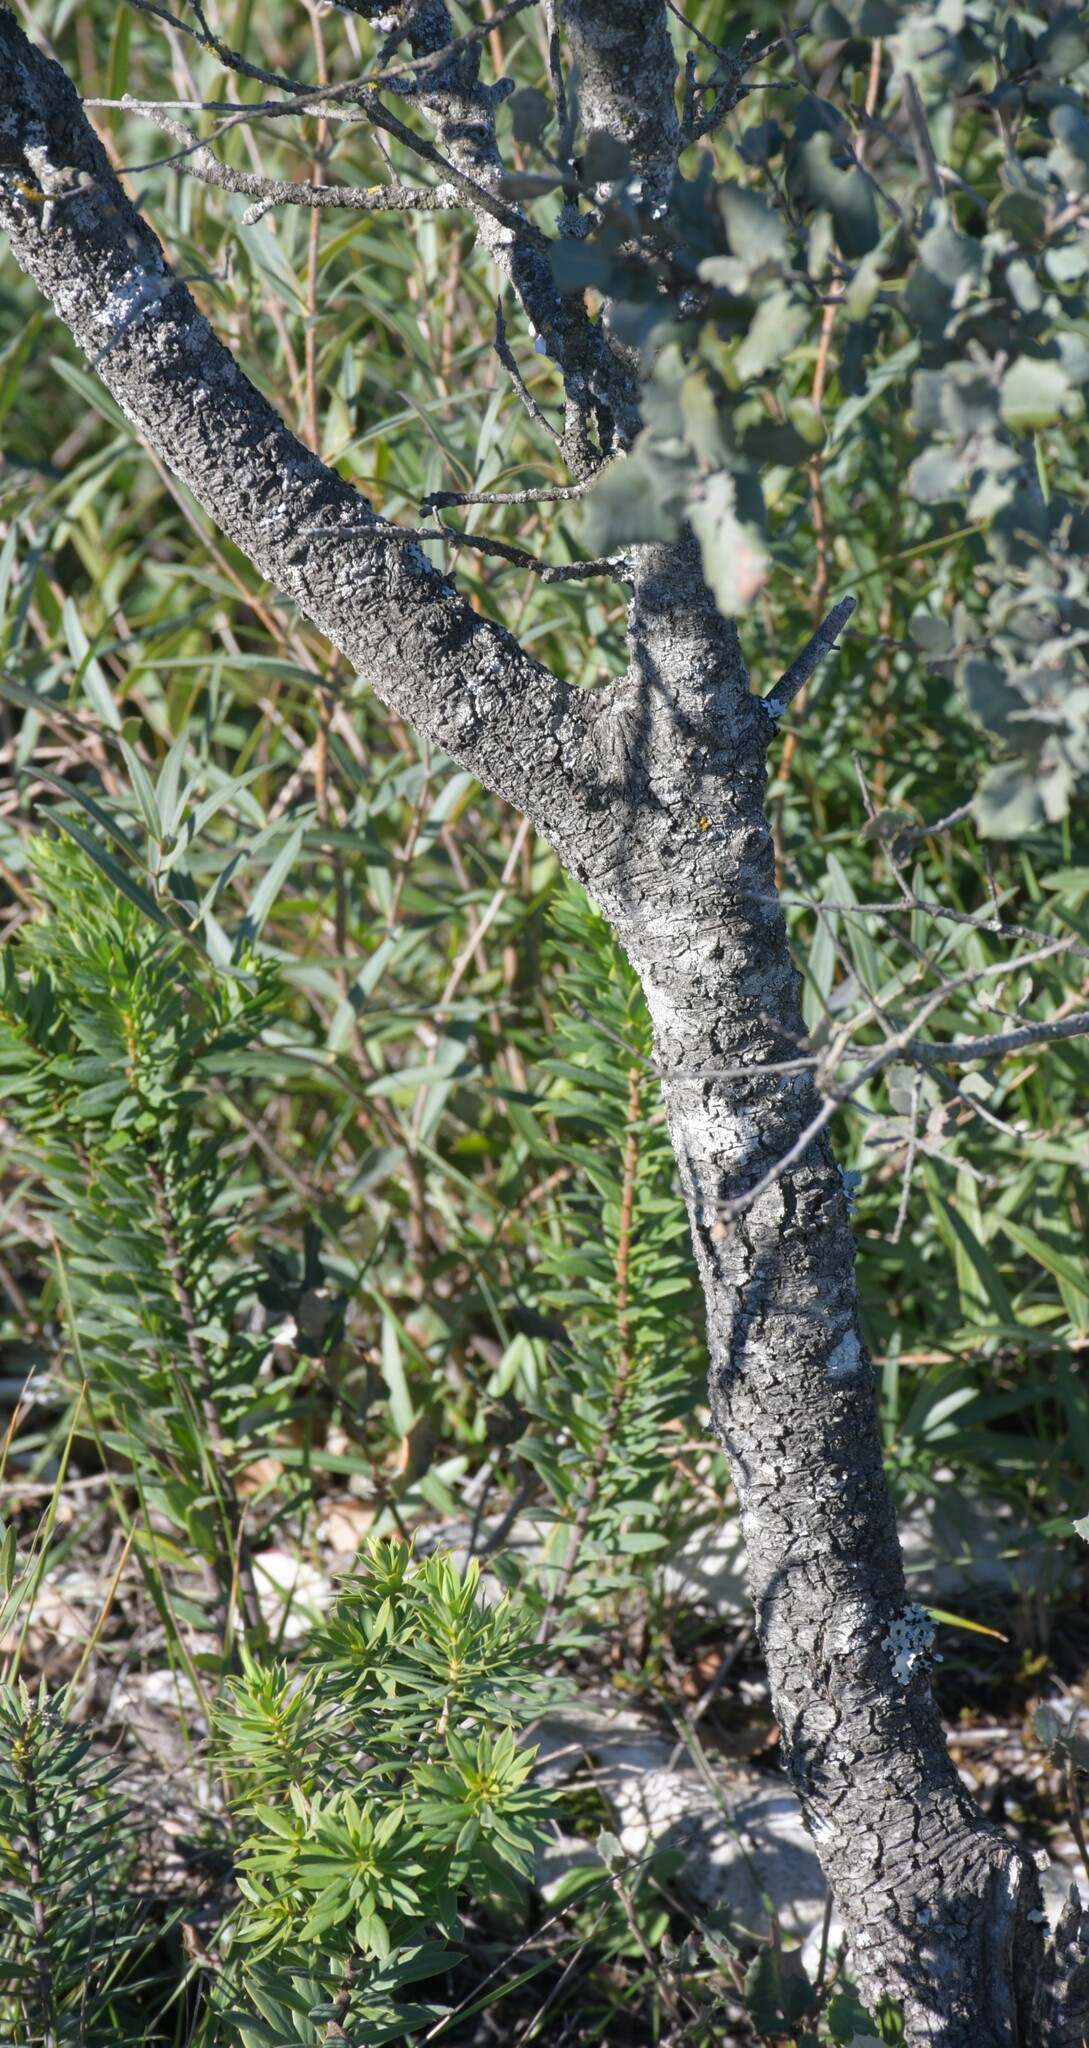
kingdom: Plantae
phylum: Tracheophyta
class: Magnoliopsida
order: Fagales
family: Fagaceae
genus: Quercus
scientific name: Quercus rotundifolia
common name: Holm oak
